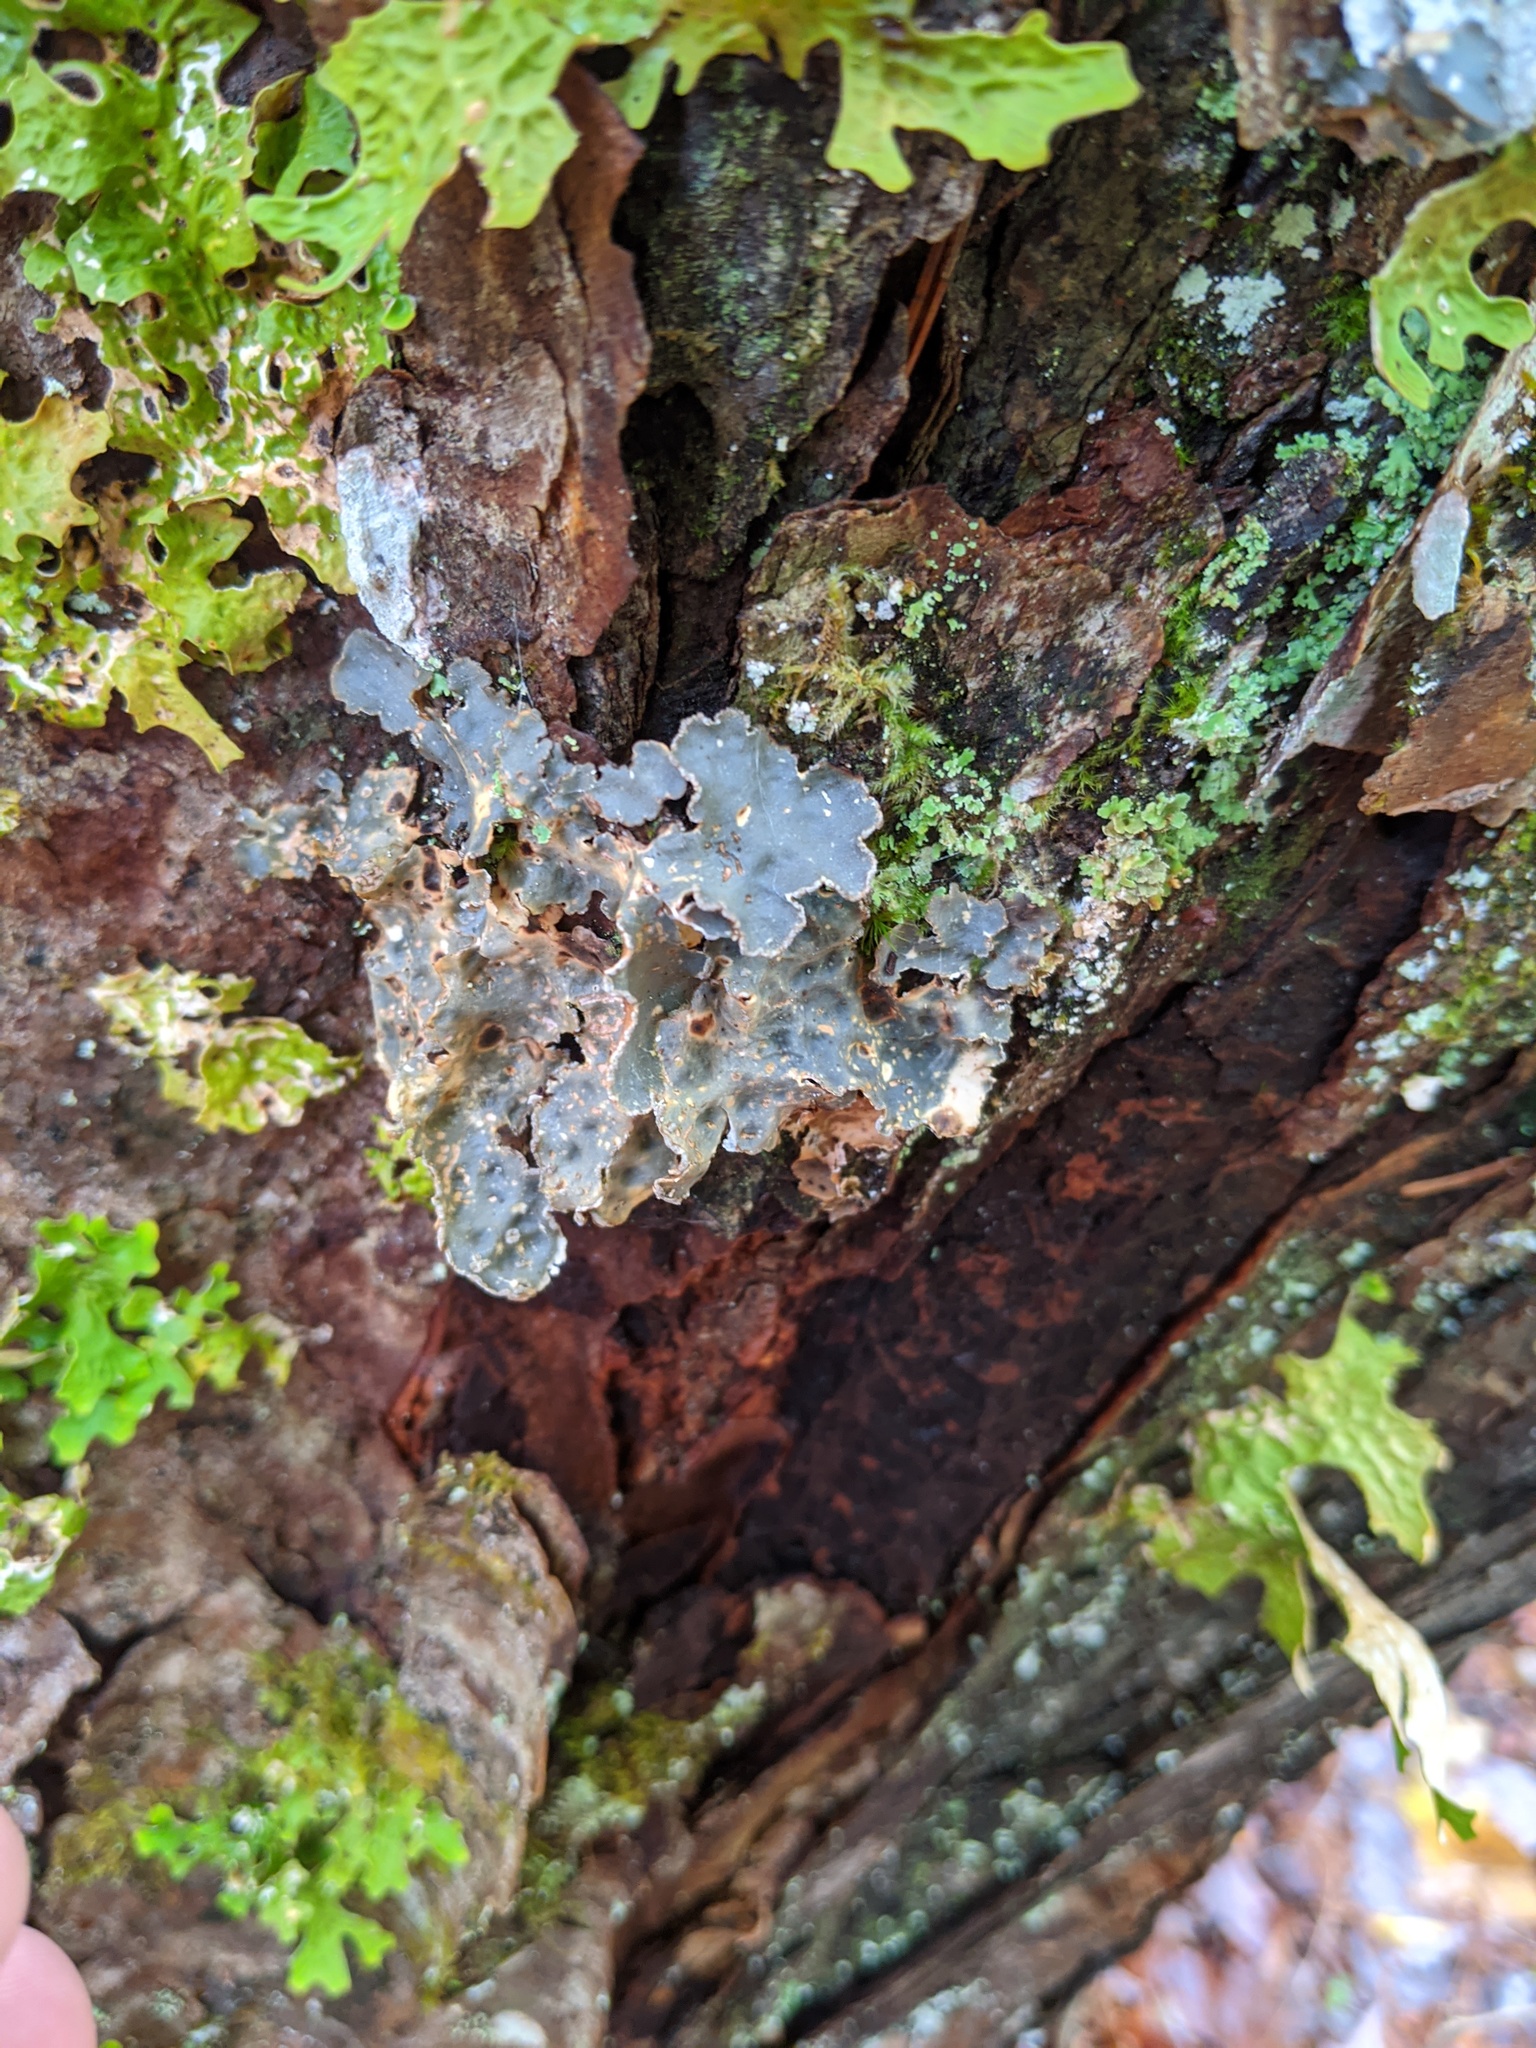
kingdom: Fungi
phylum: Ascomycota
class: Lecanoromycetes
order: Peltigerales
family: Lobariaceae
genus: Lobarina
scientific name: Lobarina scrobiculata
